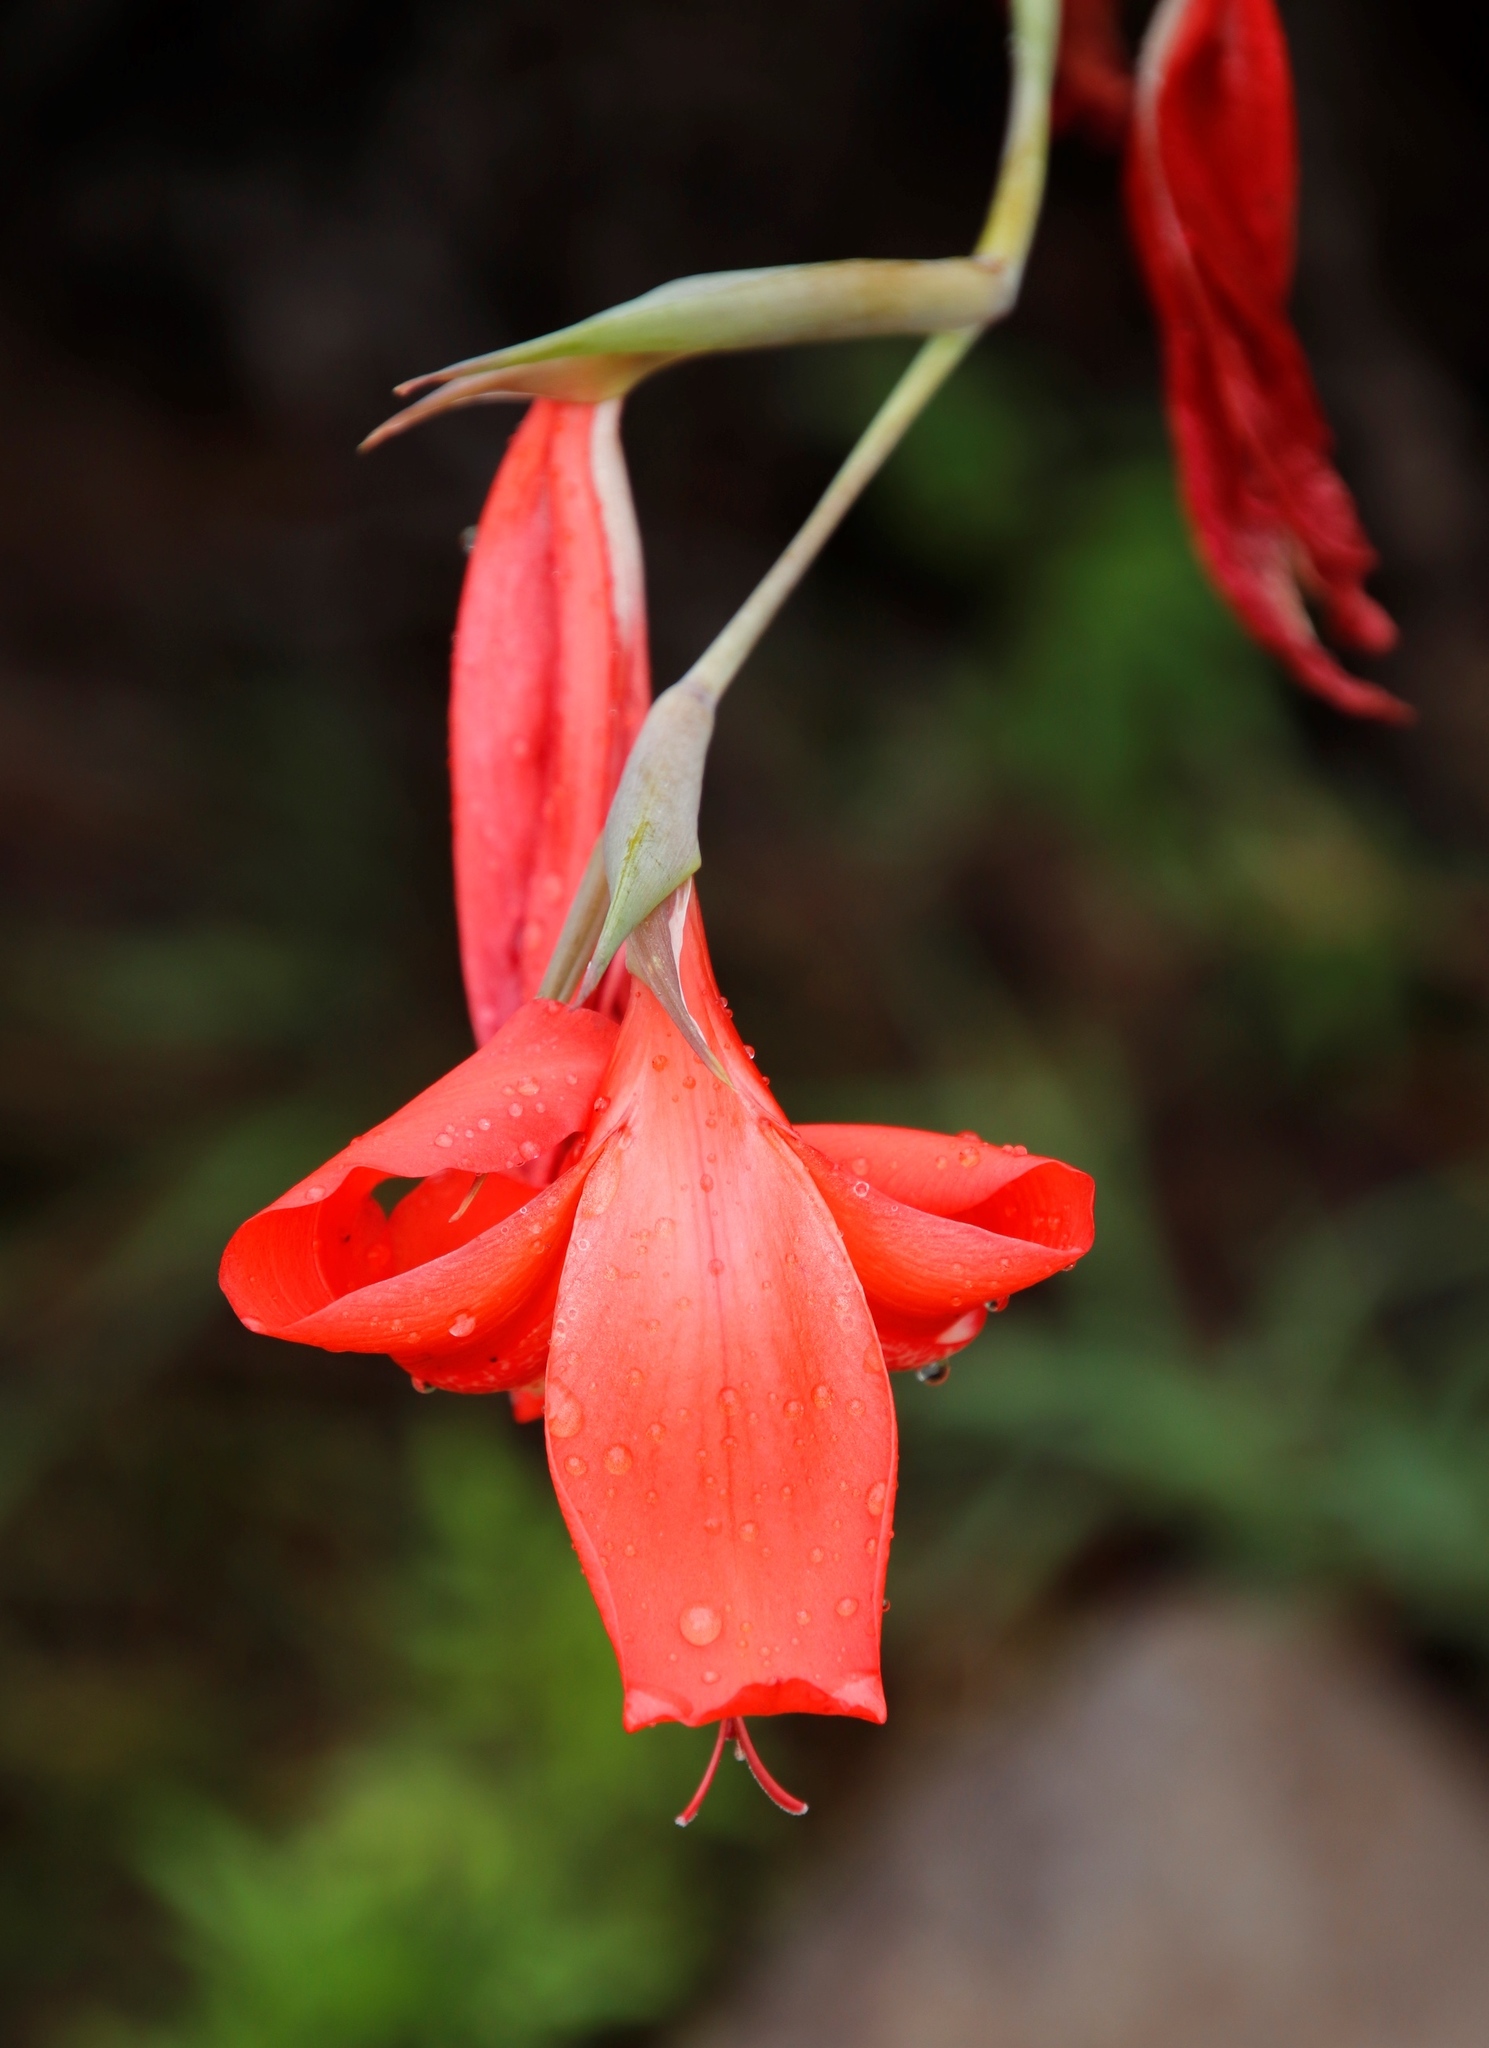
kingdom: Plantae
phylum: Tracheophyta
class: Liliopsida
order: Asparagales
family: Iridaceae
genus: Gladiolus
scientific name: Gladiolus saundersii
